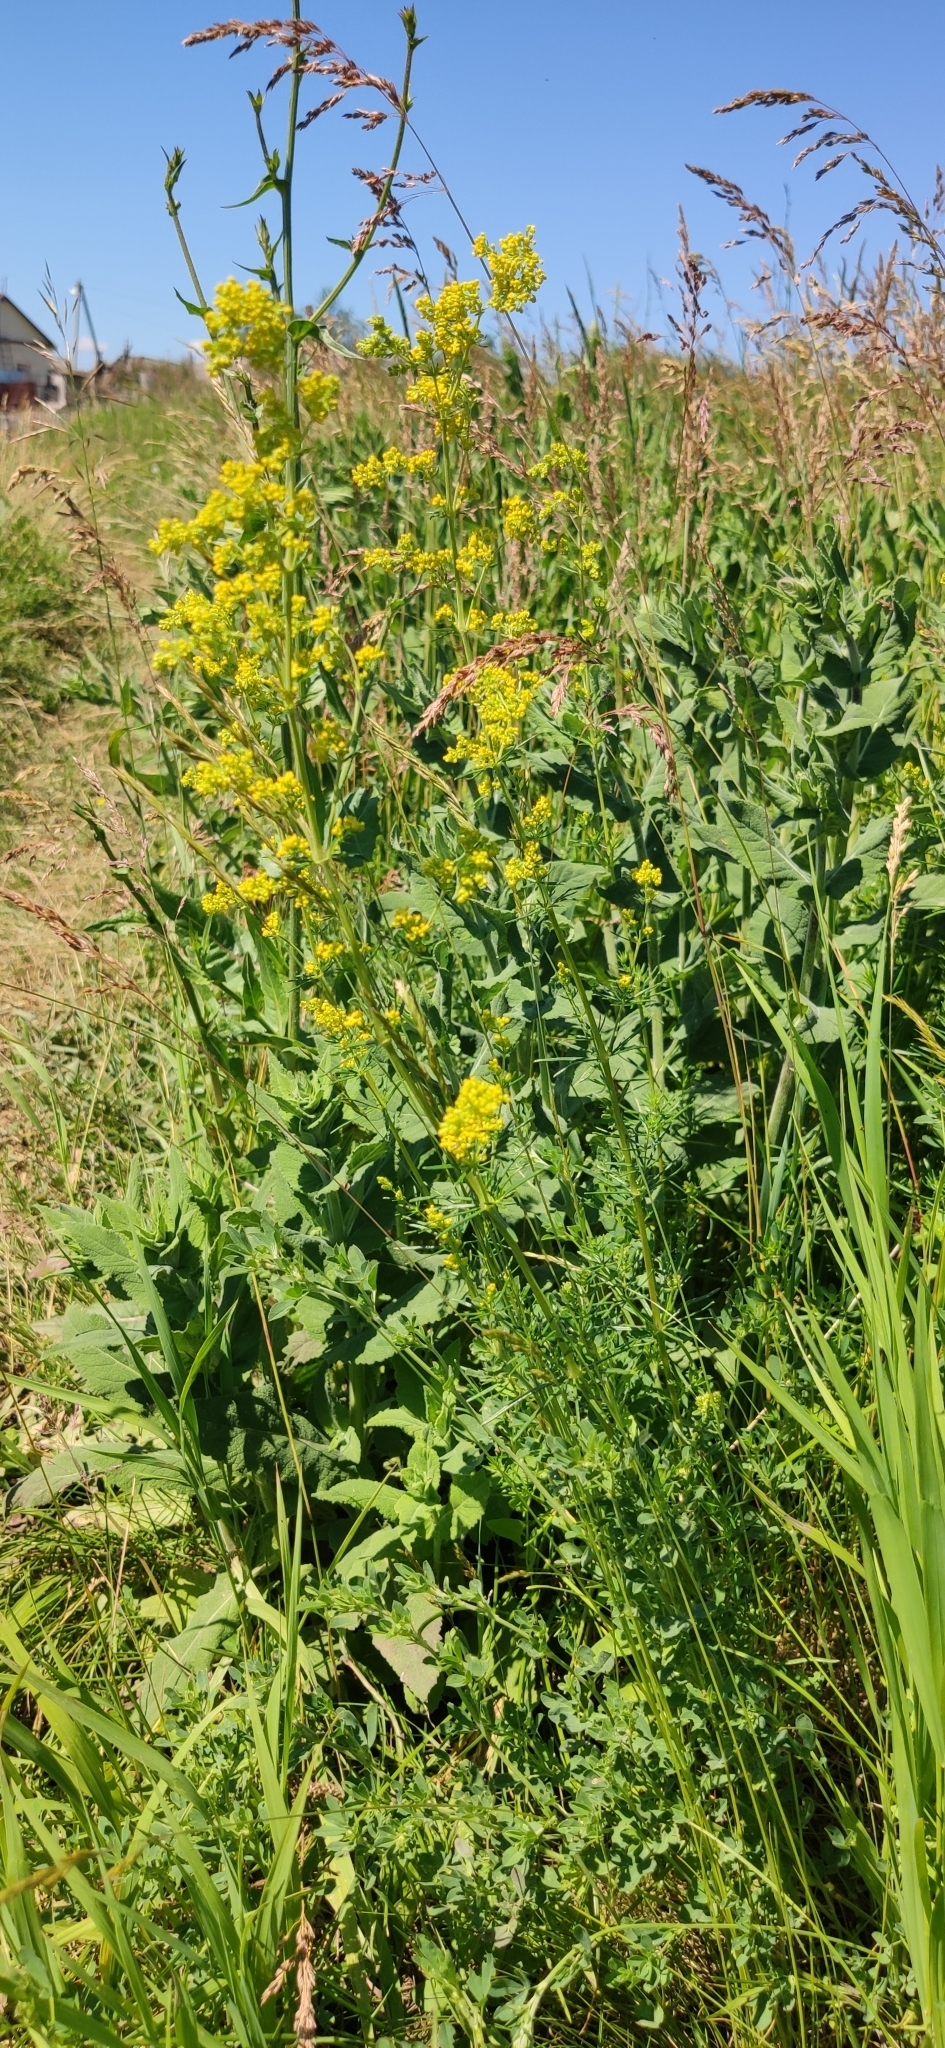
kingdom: Plantae
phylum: Tracheophyta
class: Magnoliopsida
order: Gentianales
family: Rubiaceae
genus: Galium
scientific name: Galium verum
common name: Lady's bedstraw
